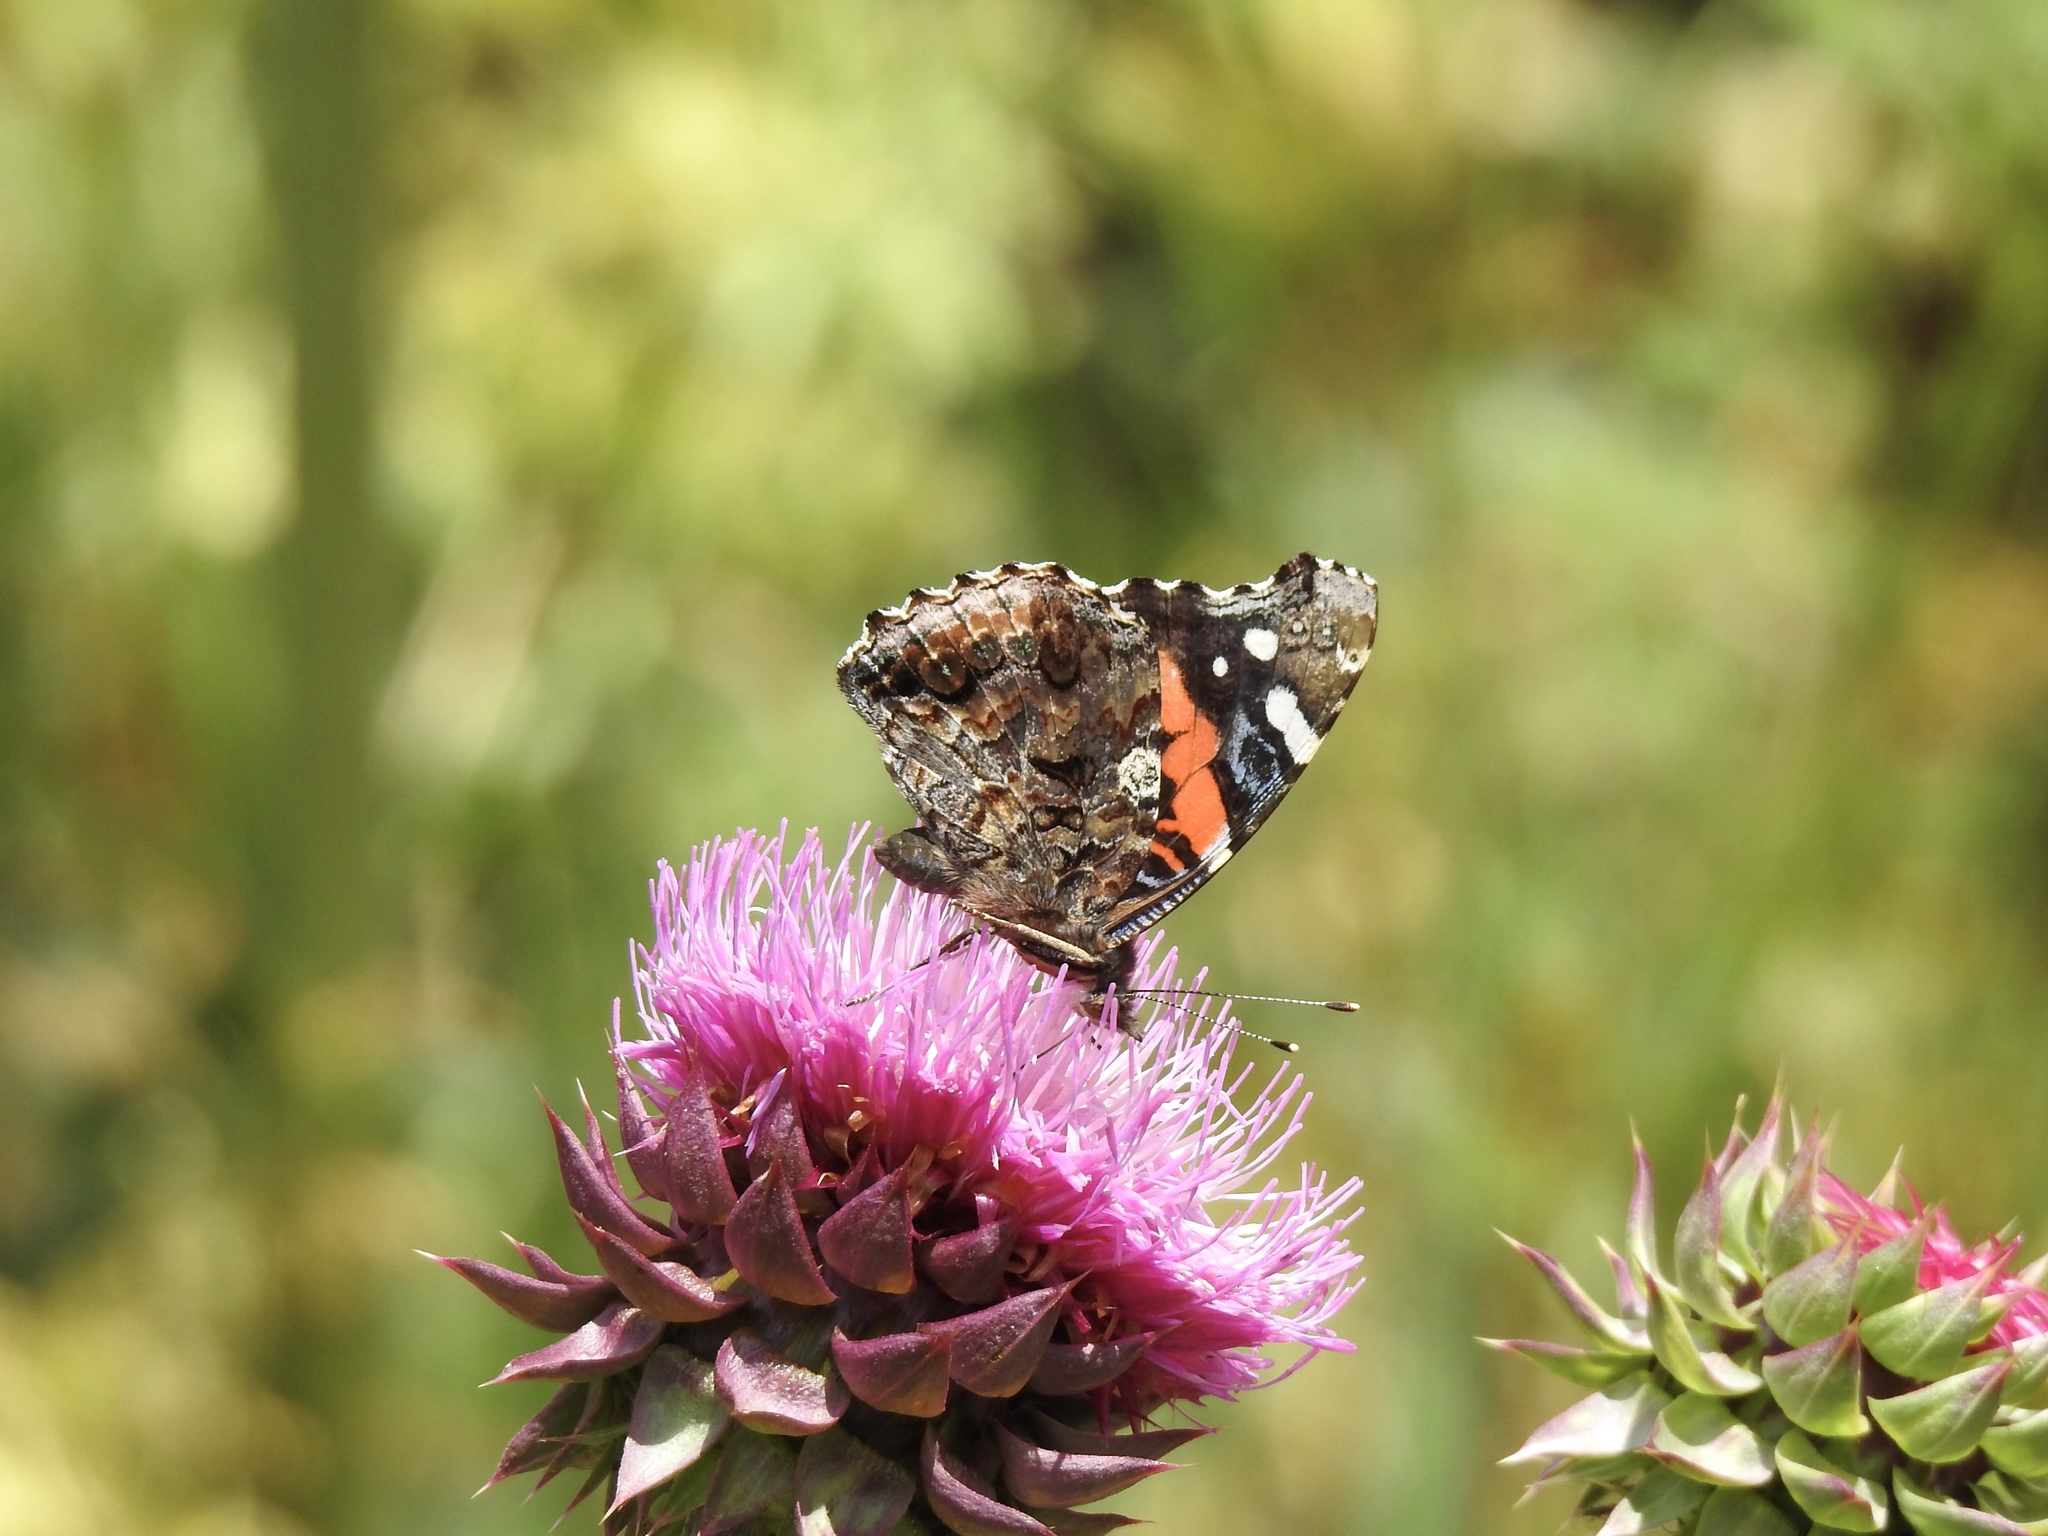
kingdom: Animalia
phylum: Arthropoda
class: Insecta
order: Lepidoptera
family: Nymphalidae
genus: Vanessa
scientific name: Vanessa atalanta
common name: Red admiral
